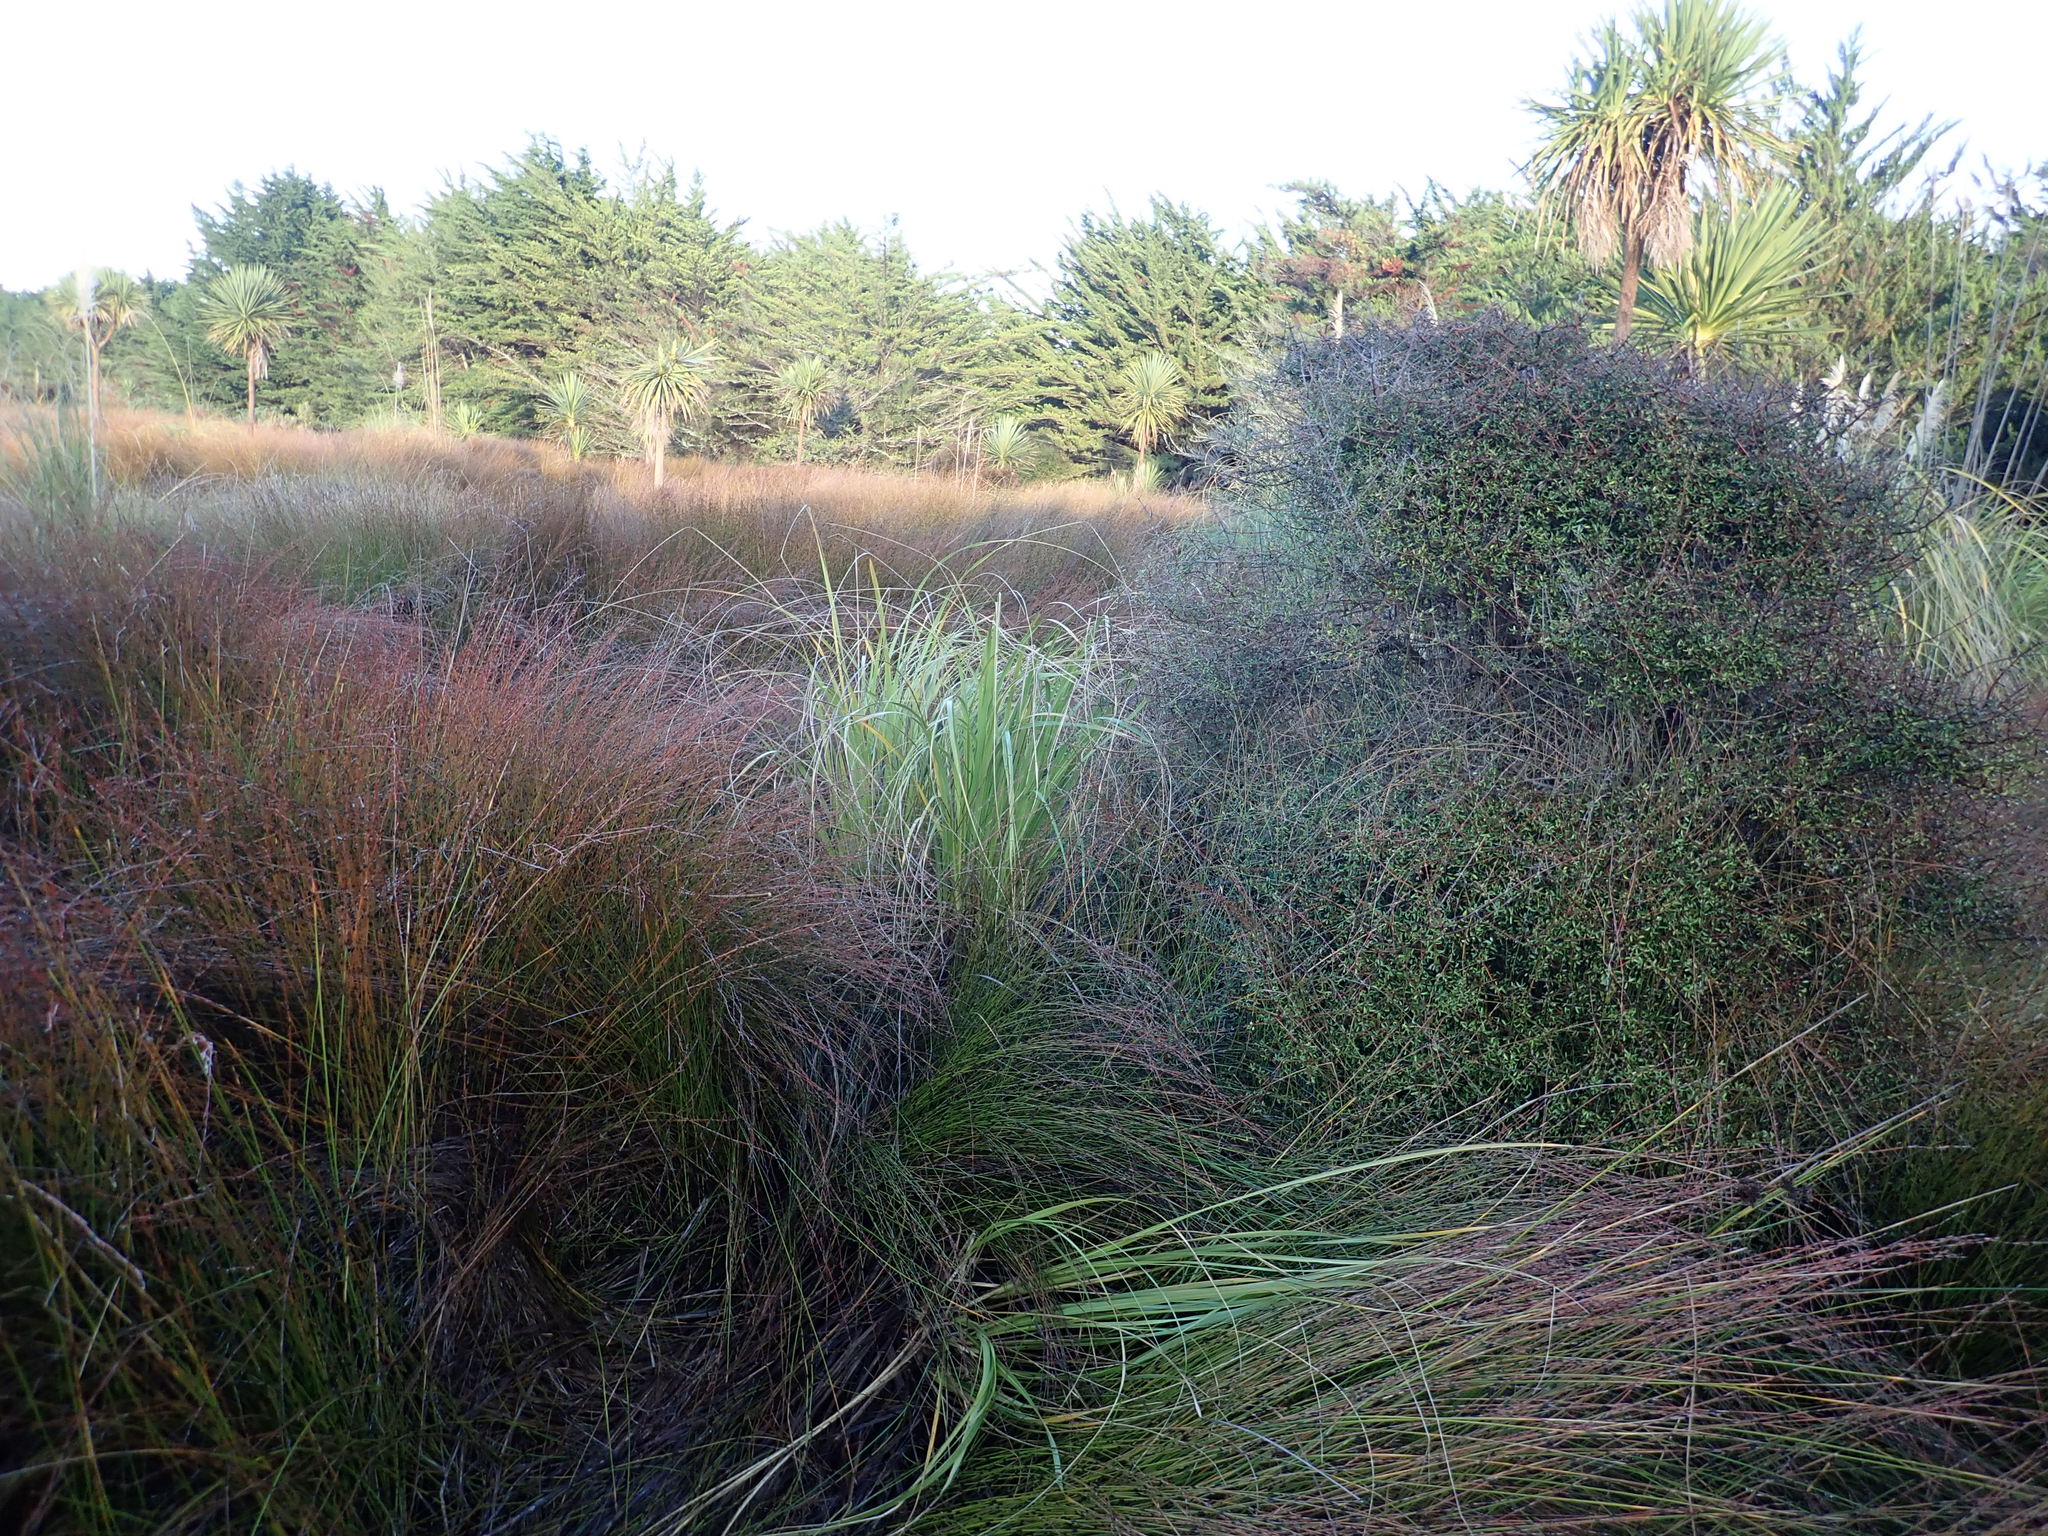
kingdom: Plantae
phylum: Tracheophyta
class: Magnoliopsida
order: Gentianales
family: Rubiaceae
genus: Coprosma
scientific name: Coprosma propinqua
